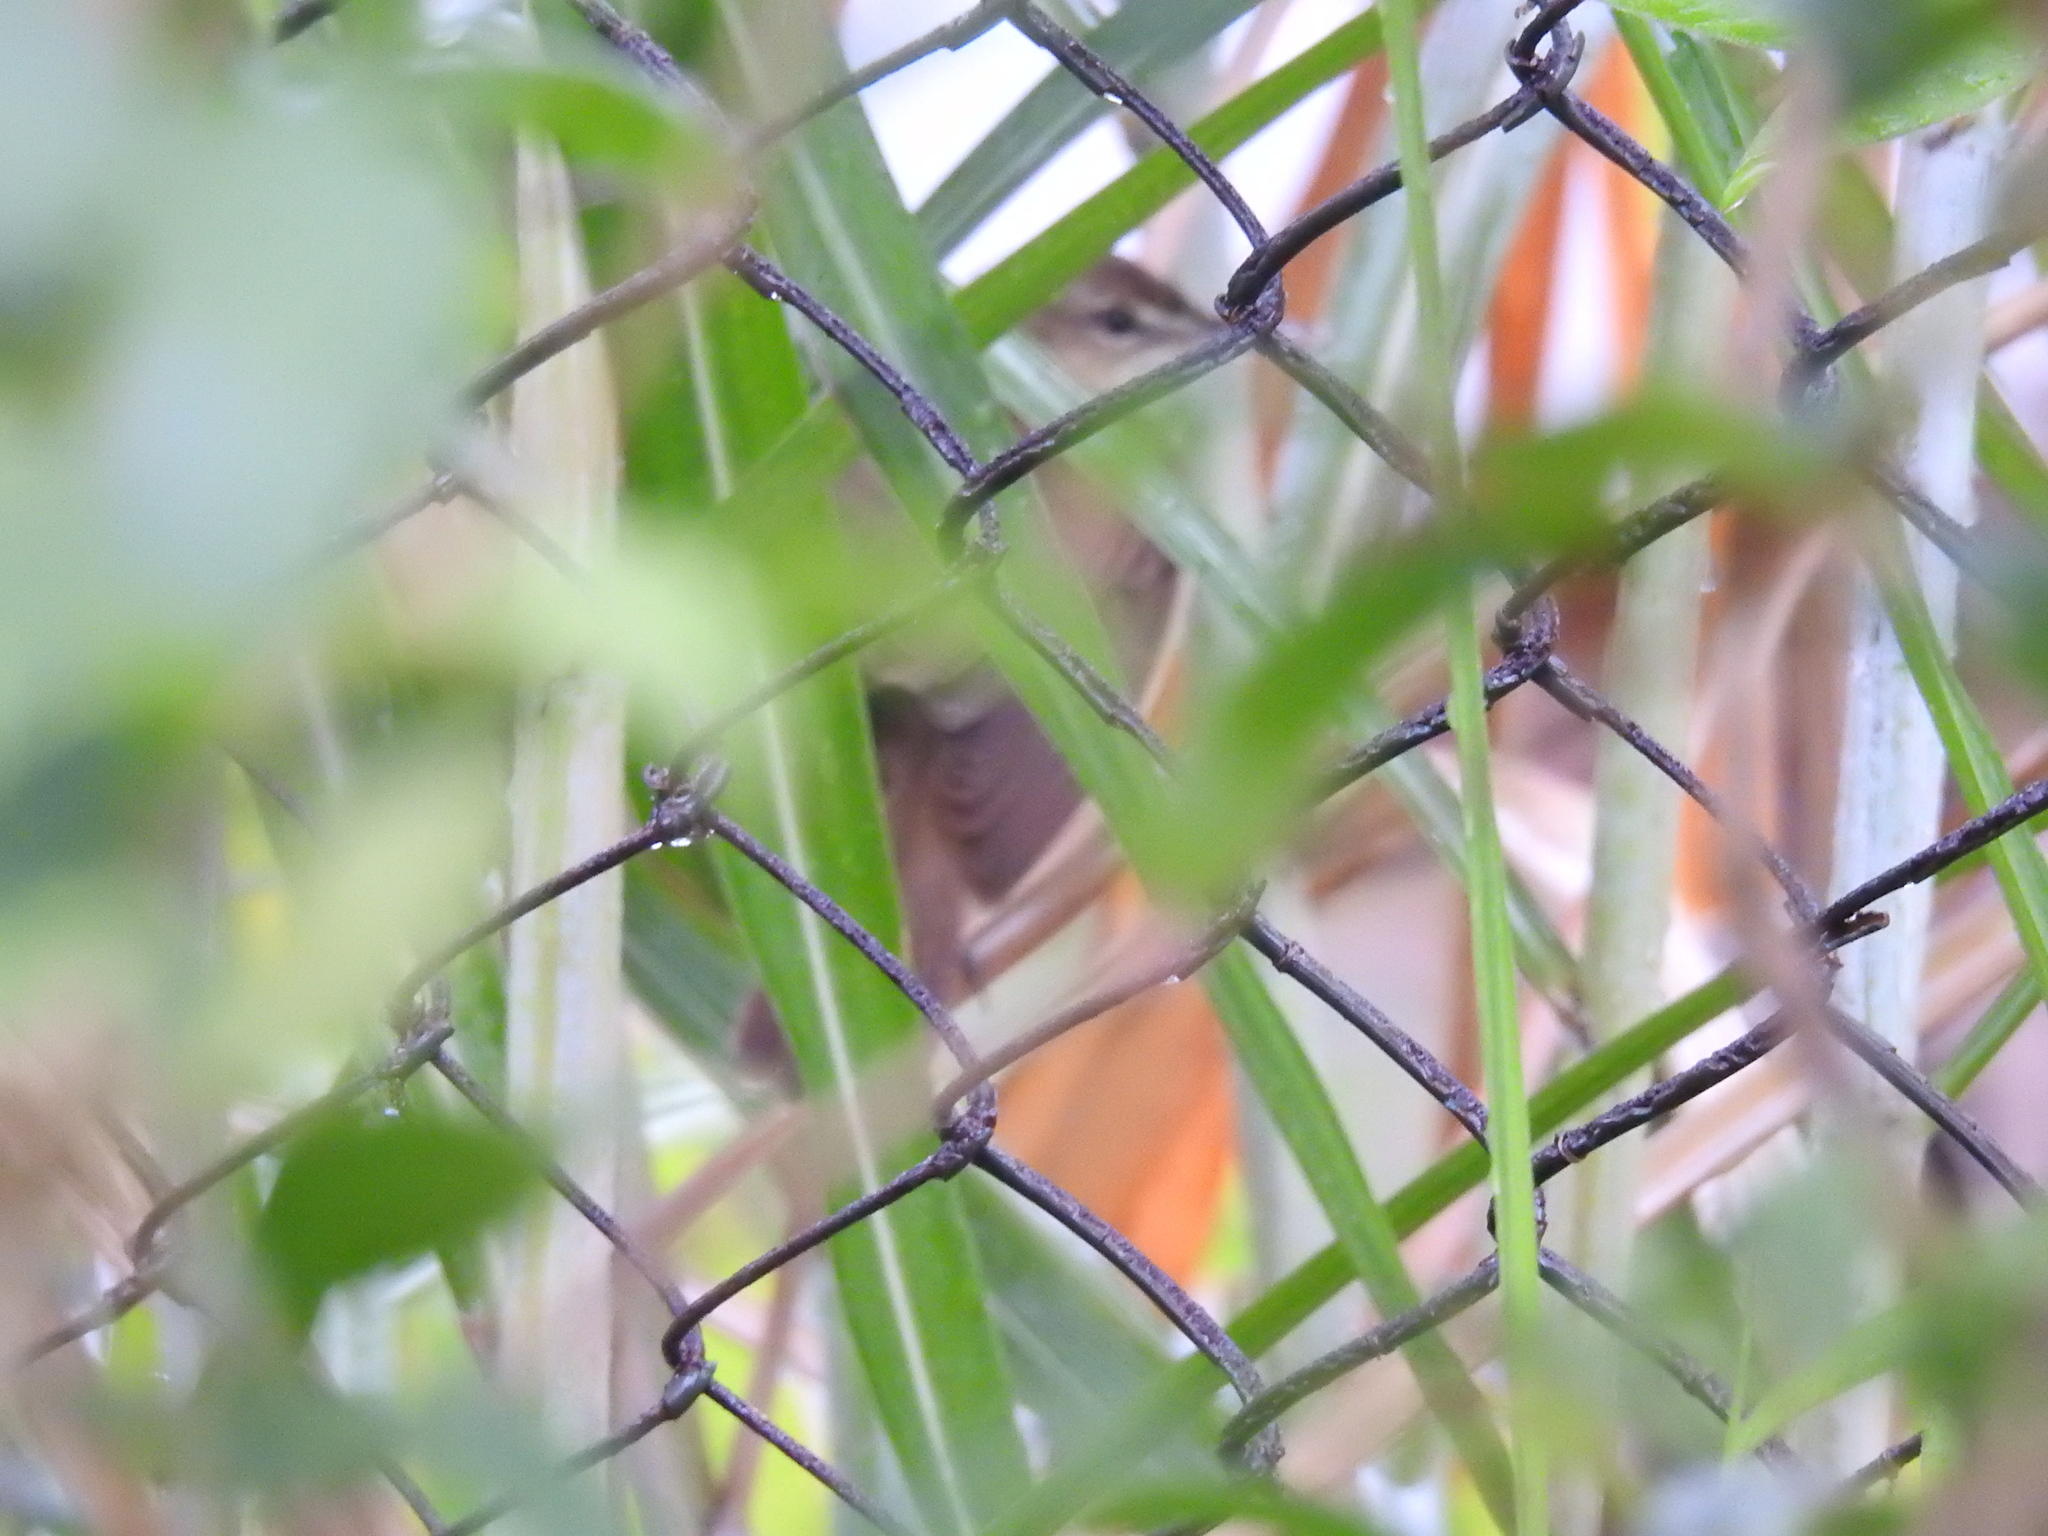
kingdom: Animalia
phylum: Chordata
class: Aves
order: Passeriformes
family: Acrocephalidae
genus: Acrocephalus
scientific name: Acrocephalus orientalis
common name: Oriental reed warbler
